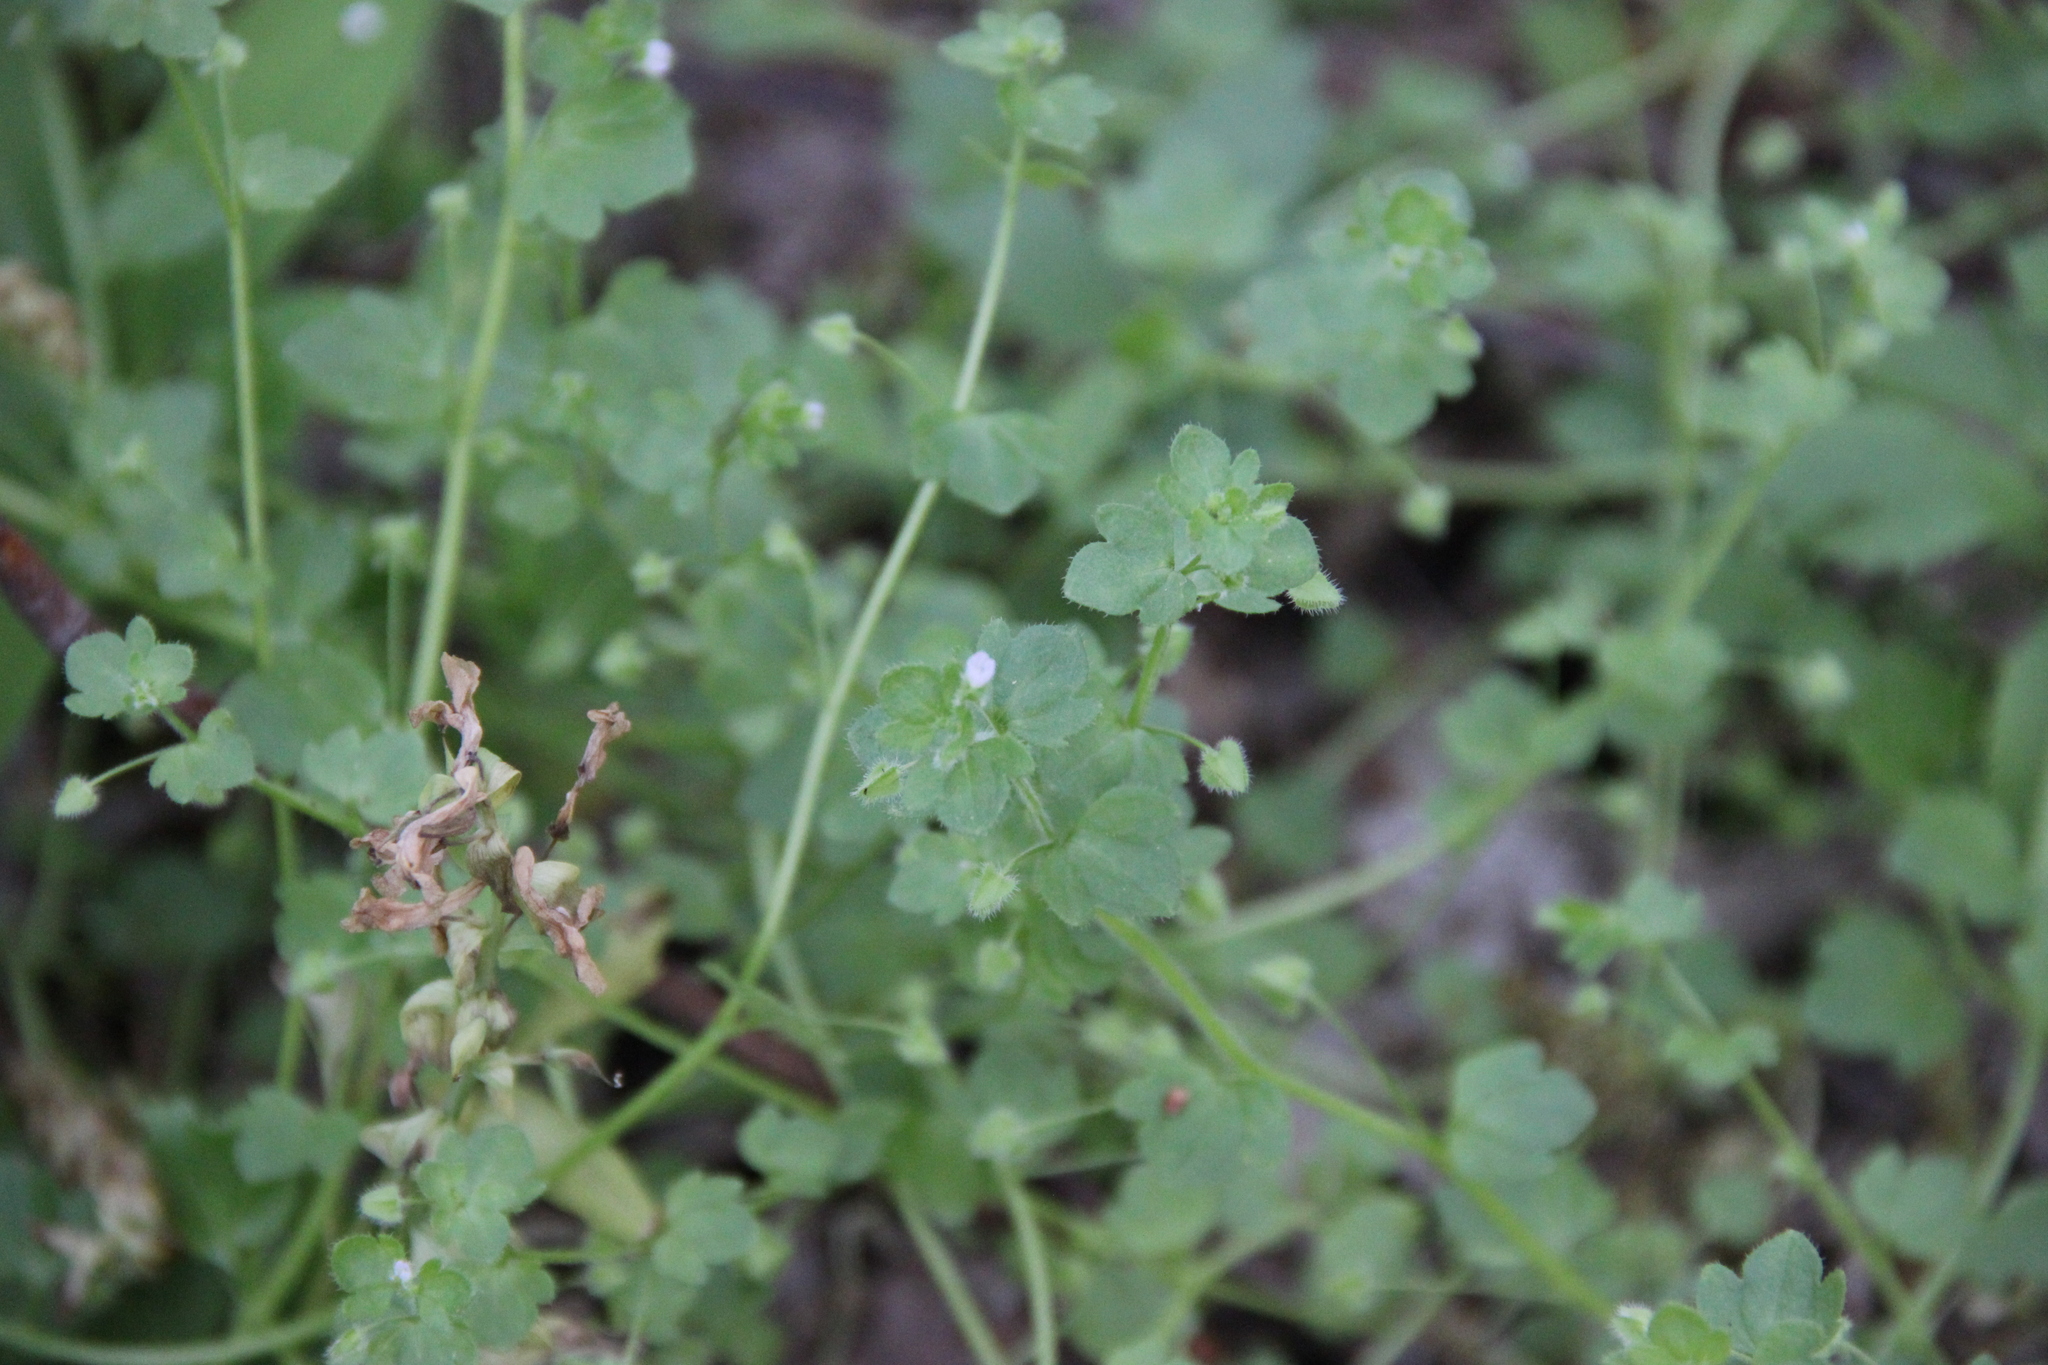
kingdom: Plantae
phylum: Tracheophyta
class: Magnoliopsida
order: Lamiales
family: Plantaginaceae
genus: Veronica
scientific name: Veronica hederifolia
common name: Ivy-leaved speedwell
